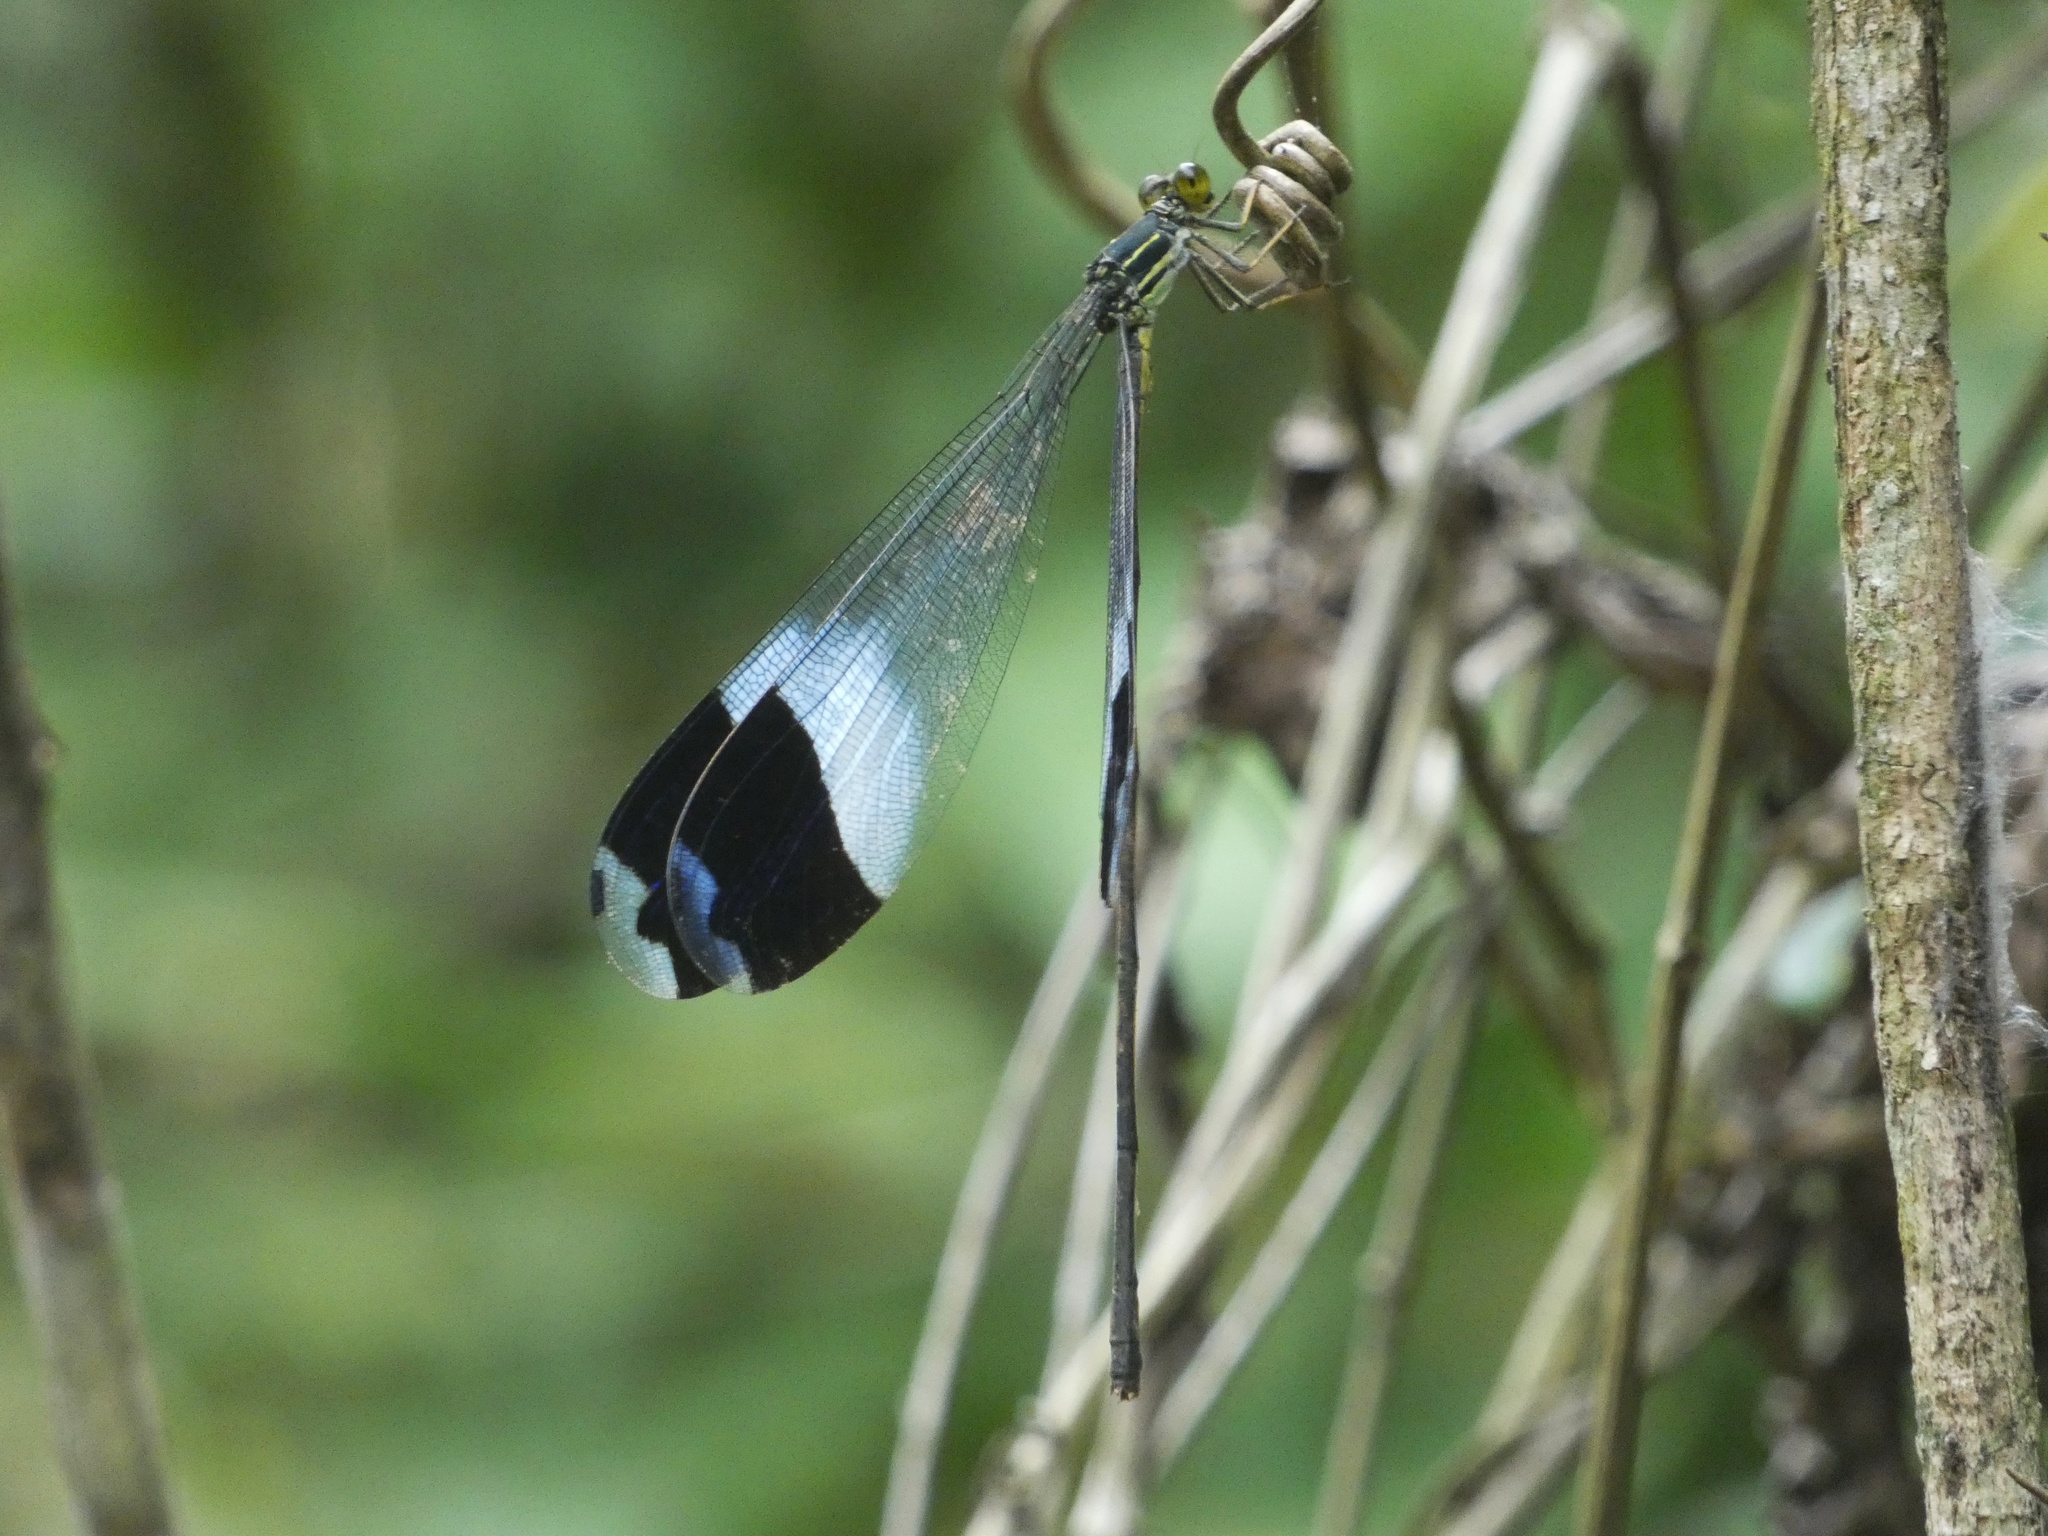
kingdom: Animalia
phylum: Arthropoda
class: Insecta
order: Odonata
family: Coenagrionidae
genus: Megaloprepus
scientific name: Megaloprepus caerulatus
